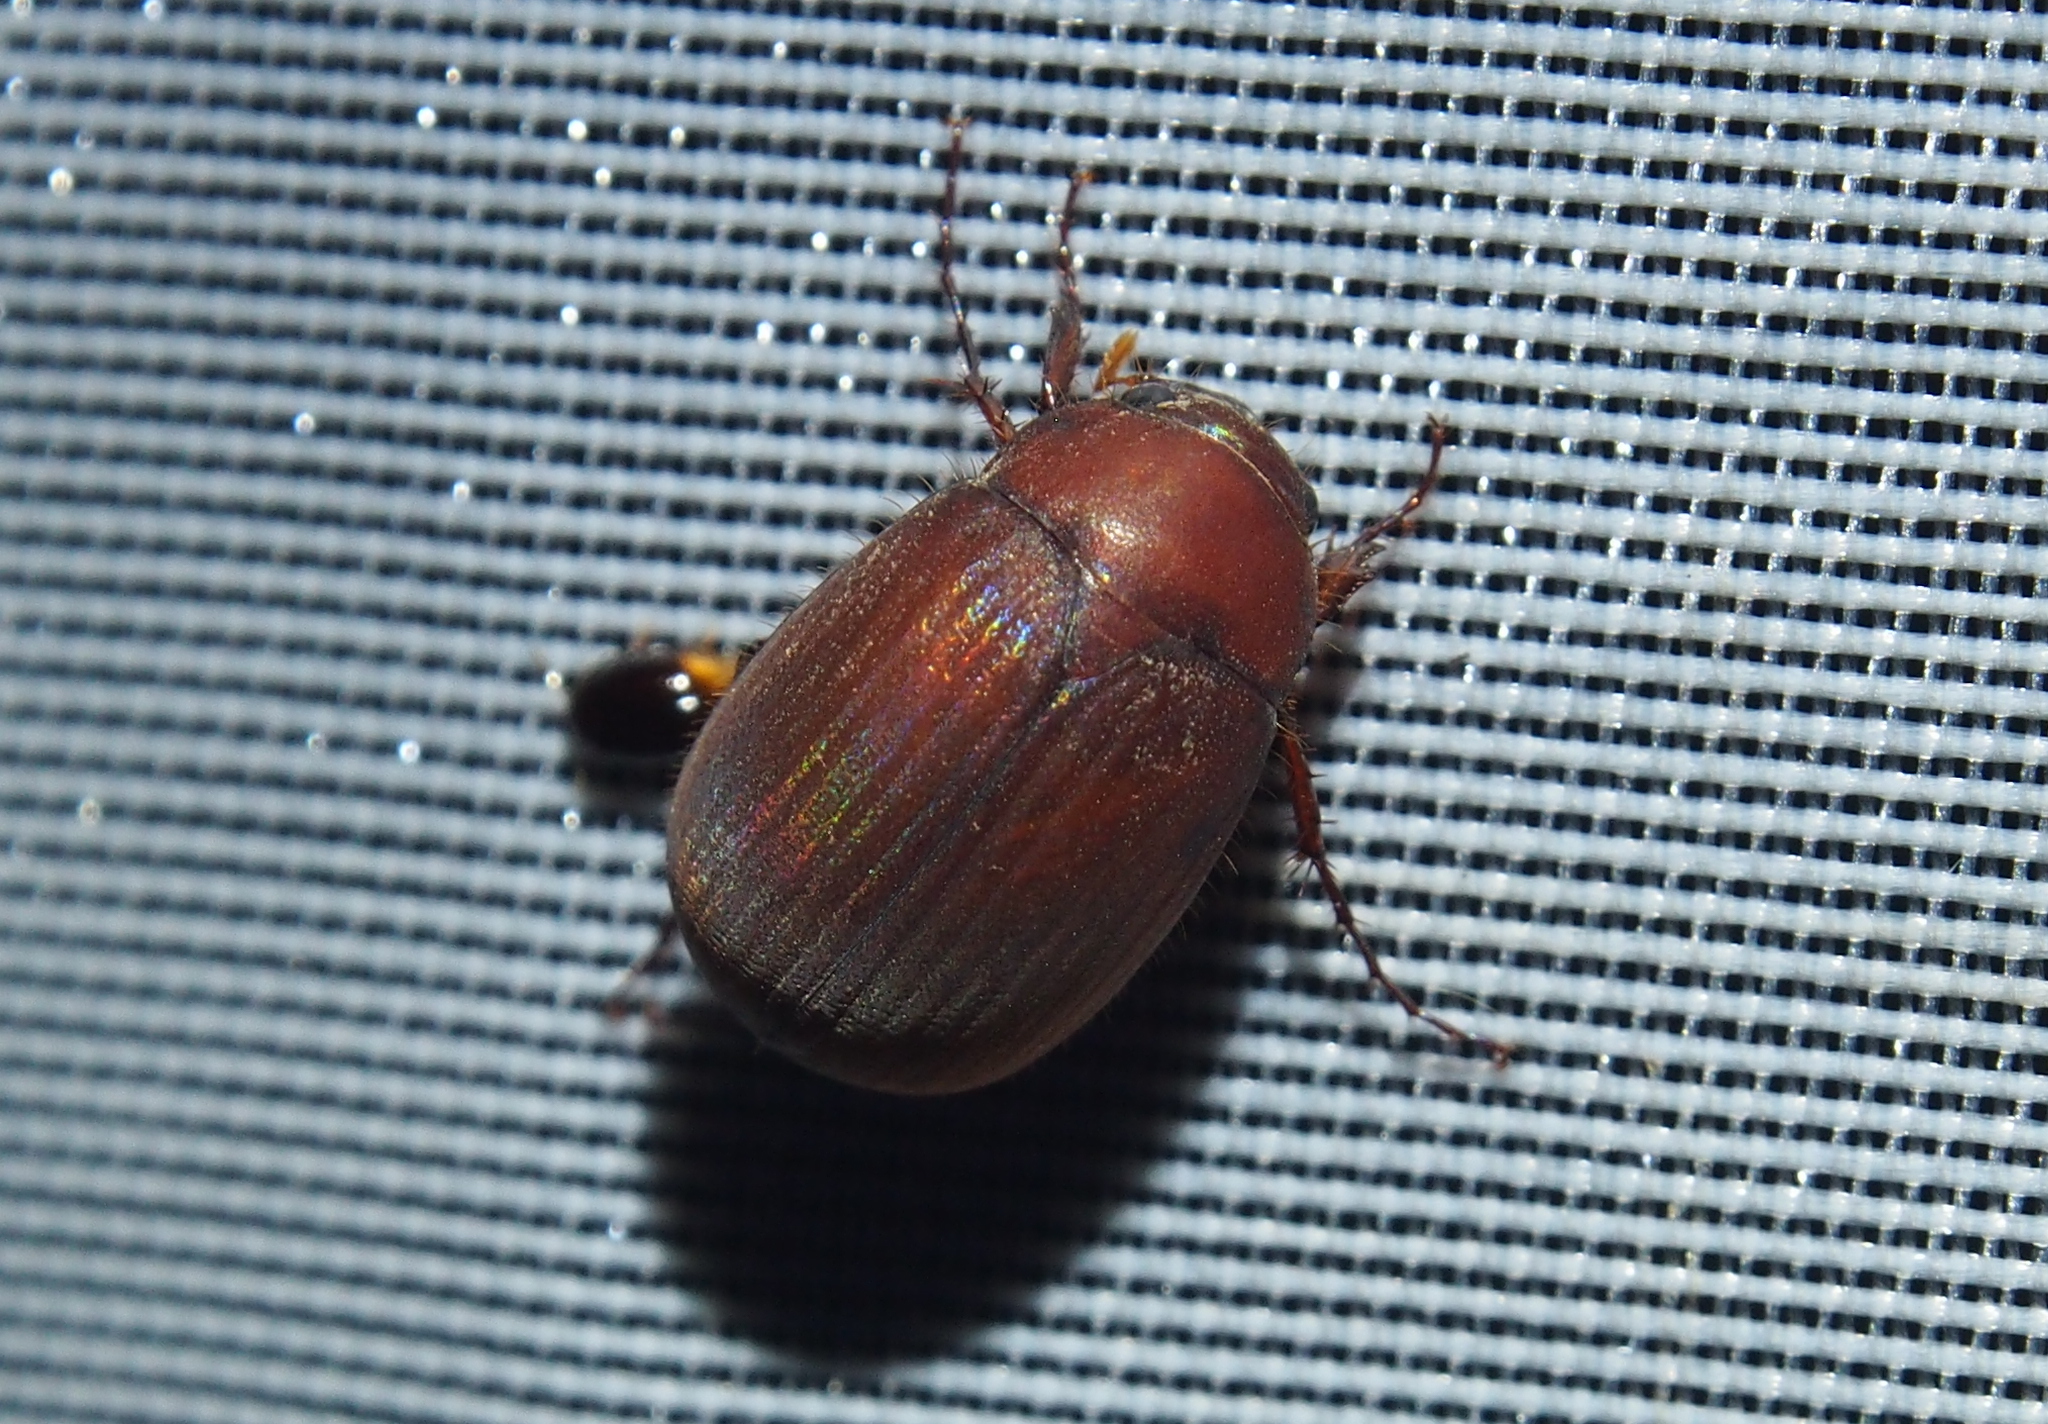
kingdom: Animalia
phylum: Arthropoda
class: Insecta
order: Coleoptera
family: Scarabaeidae
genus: Maladera
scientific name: Maladera formosae
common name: Asiatic garden beetle
